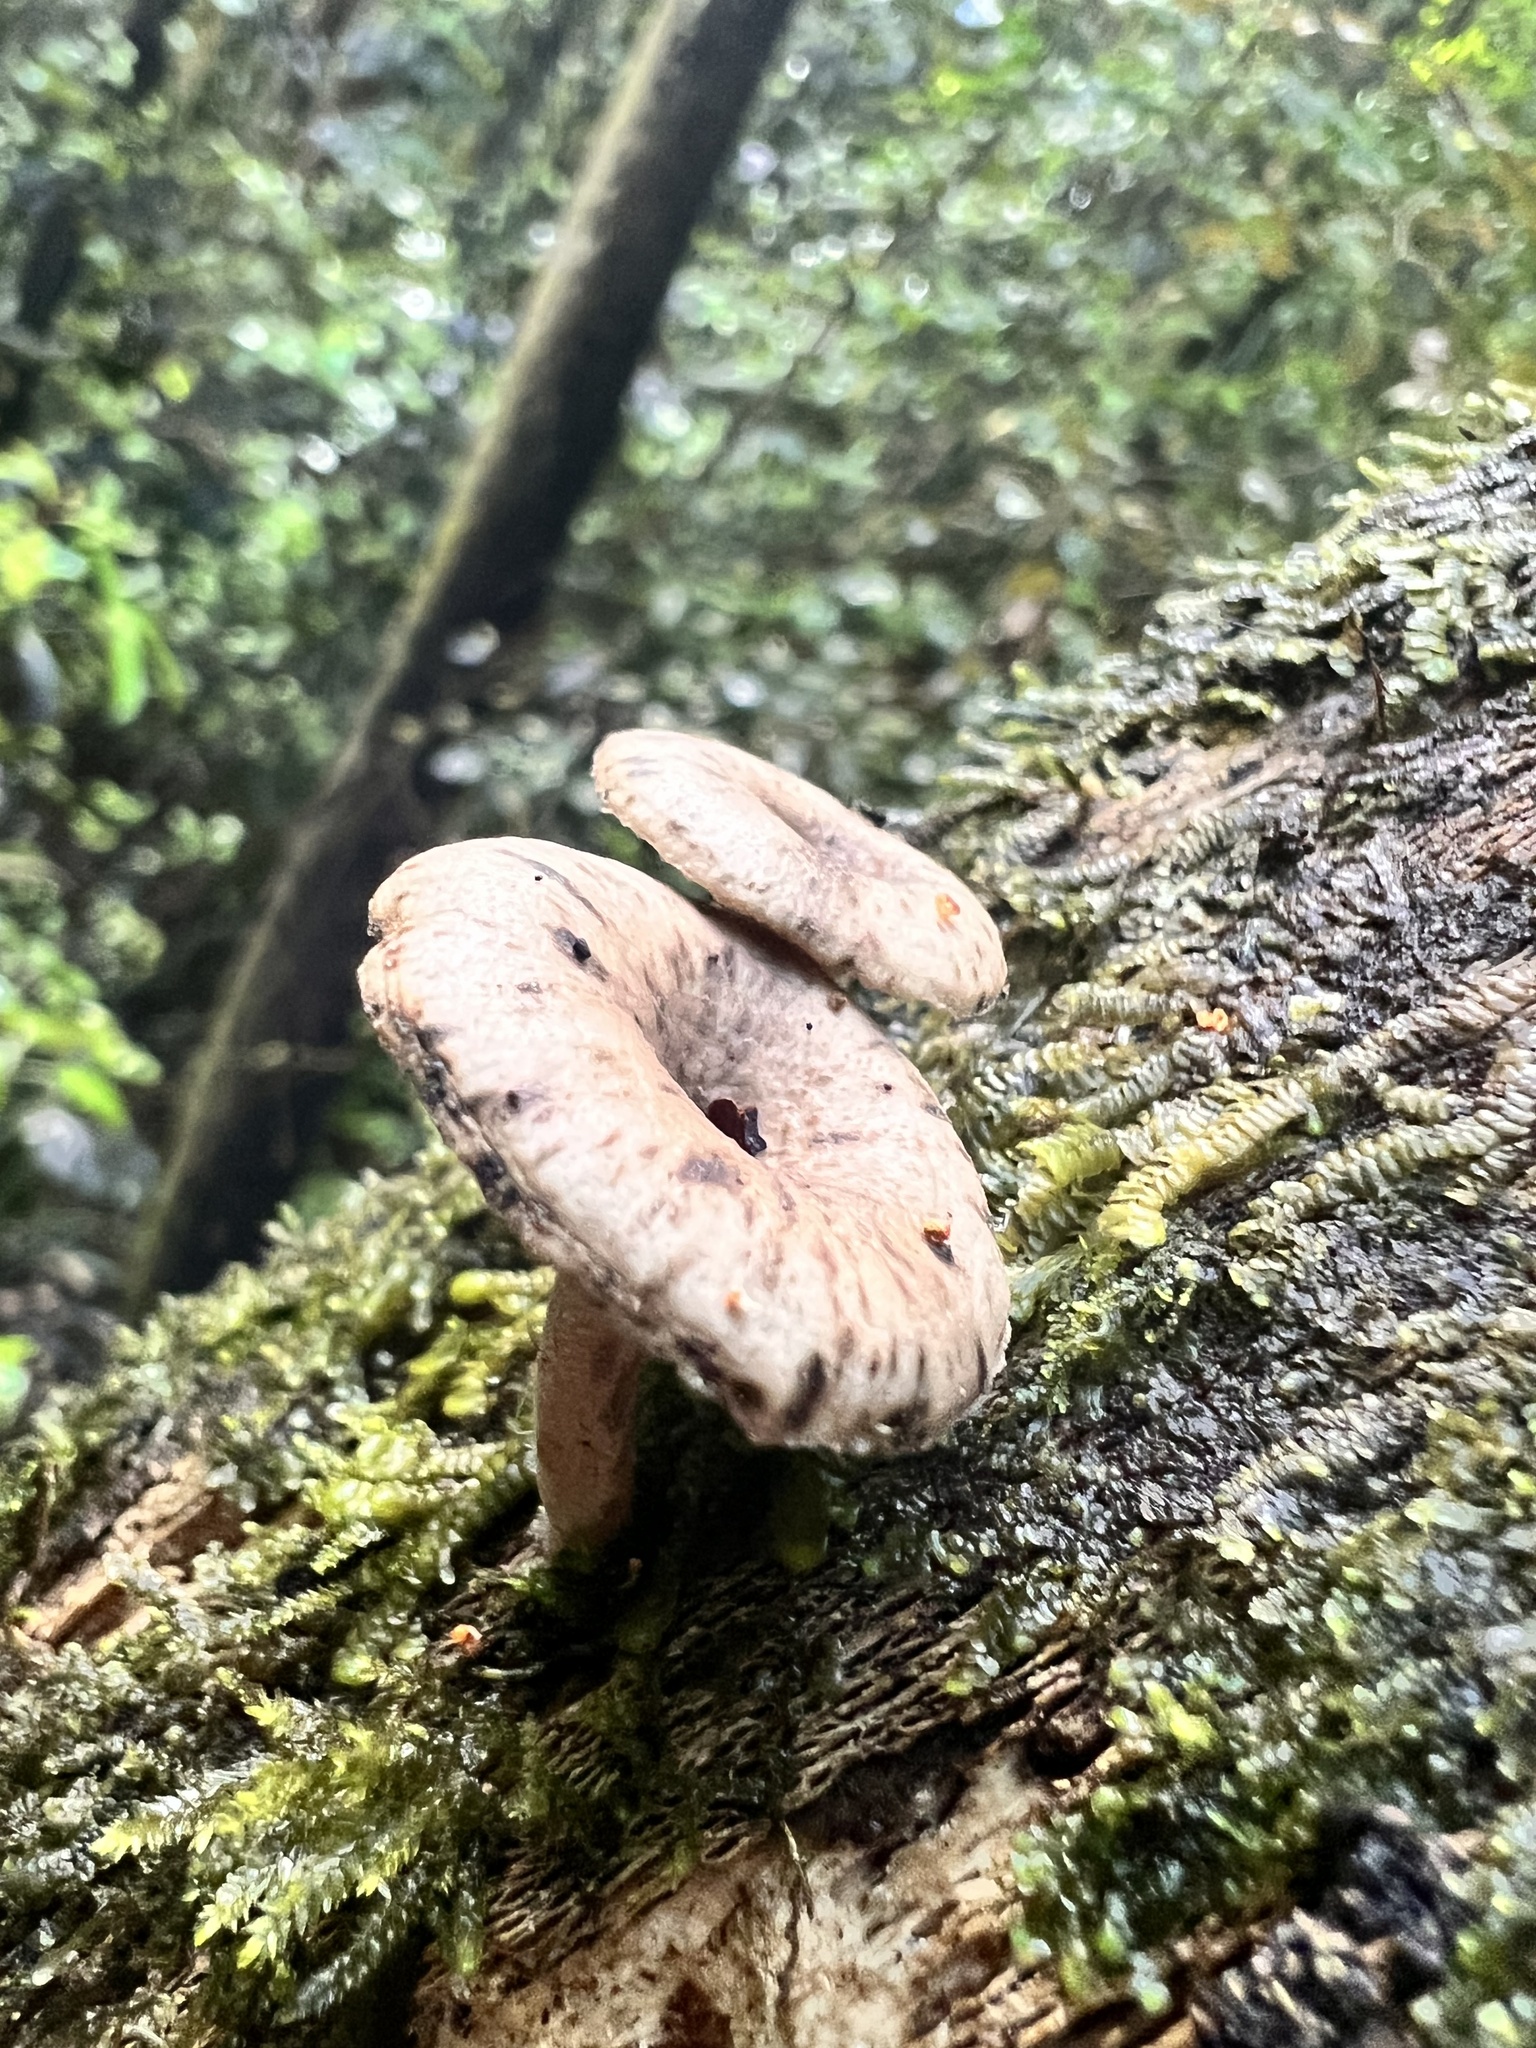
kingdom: Fungi
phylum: Basidiomycota
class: Agaricomycetes
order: Agaricales
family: Pleurotaceae
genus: Hohenbuehelia
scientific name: Hohenbuehelia
